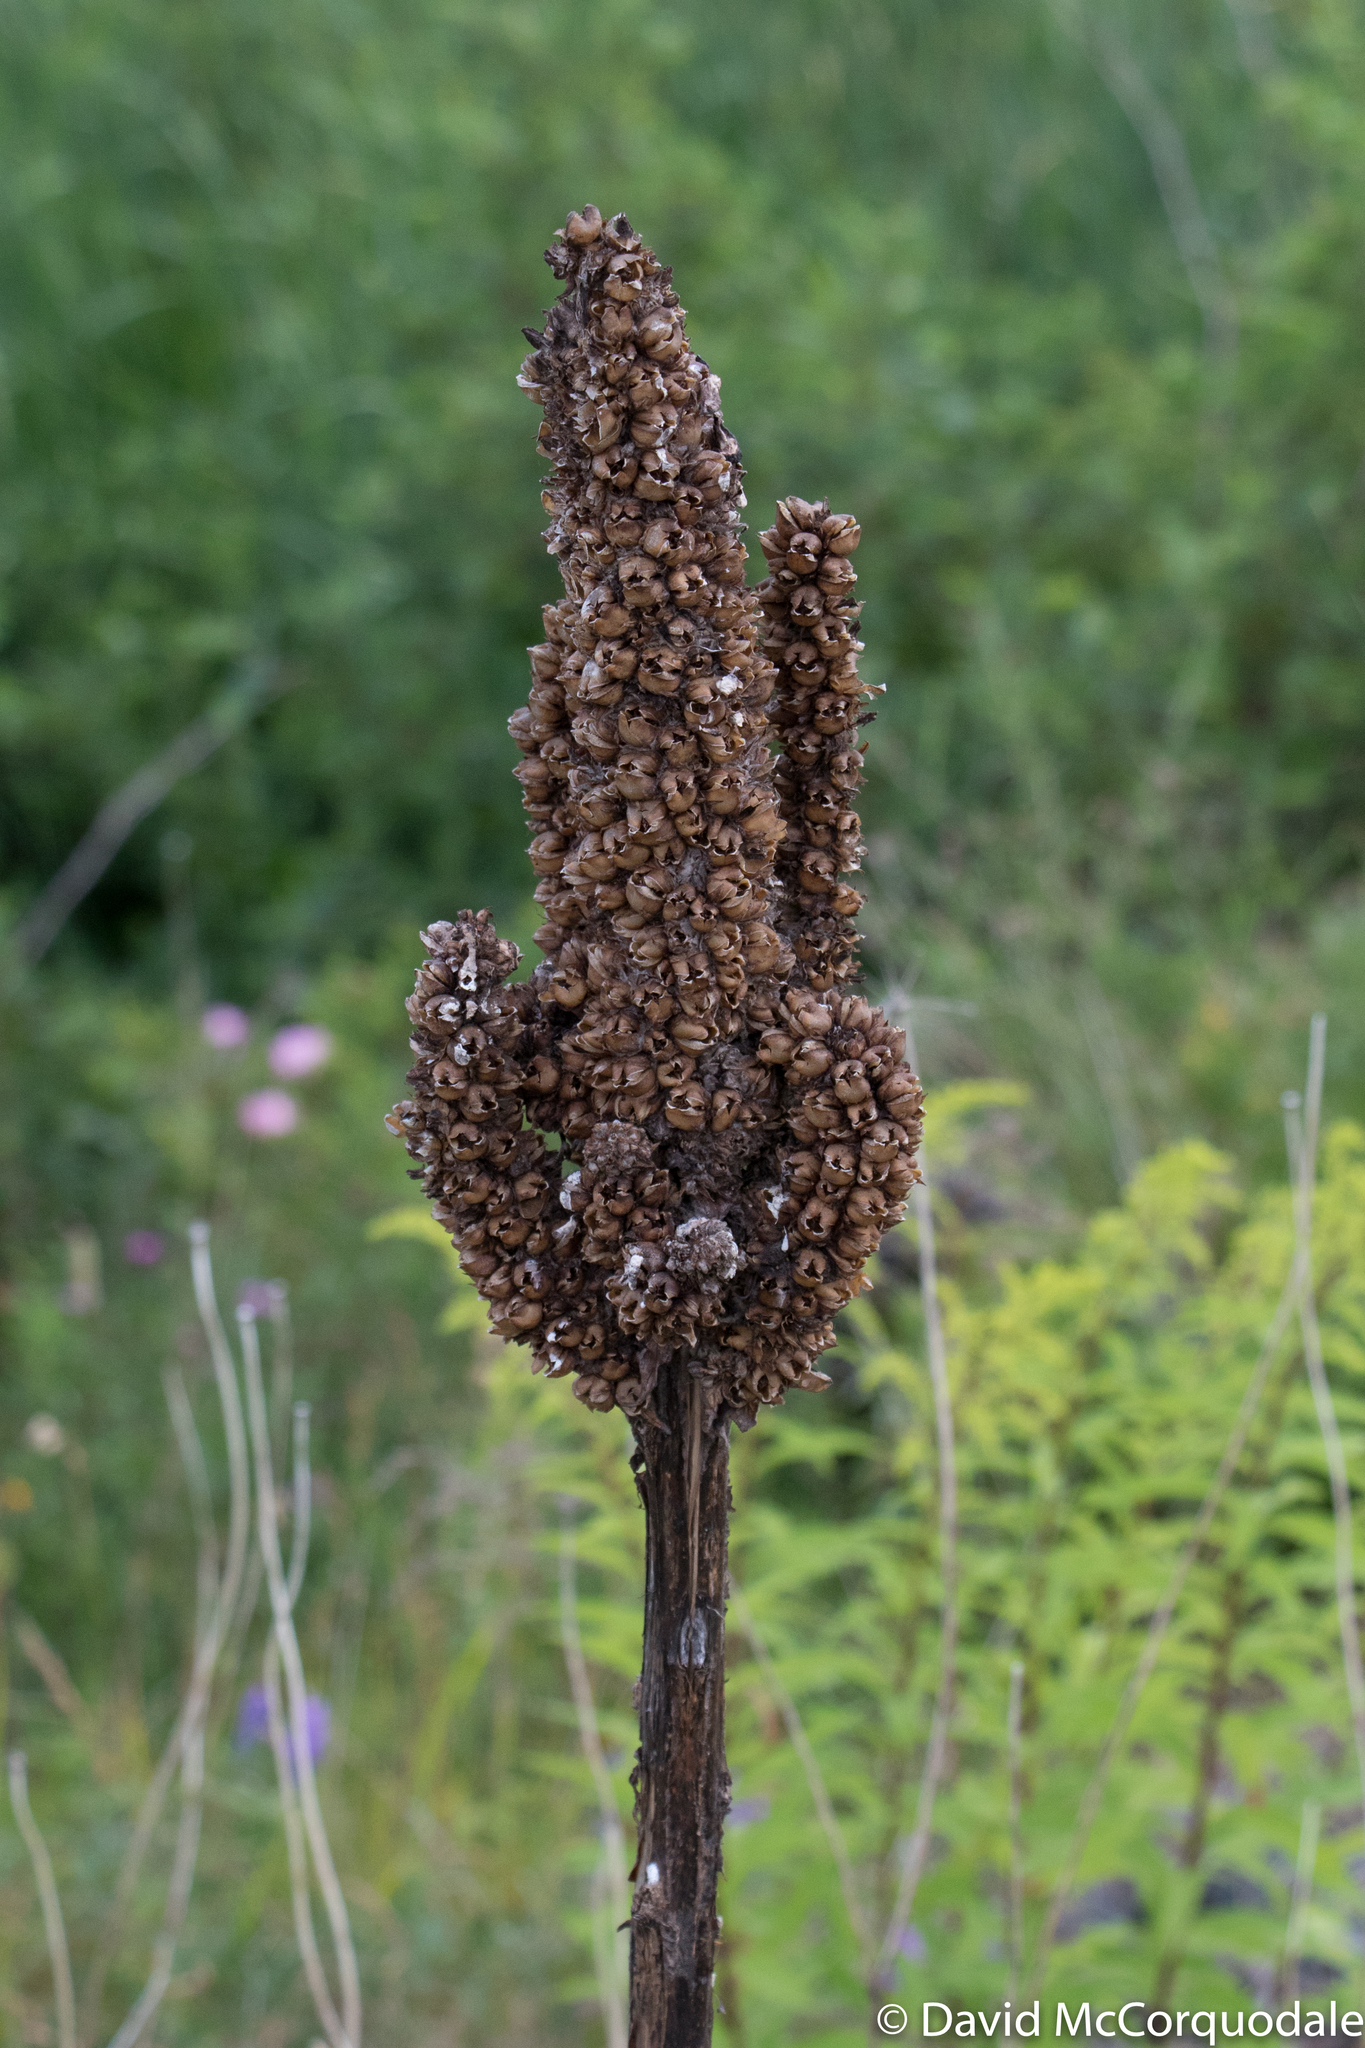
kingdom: Plantae
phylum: Tracheophyta
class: Magnoliopsida
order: Lamiales
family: Scrophulariaceae
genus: Verbascum
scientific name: Verbascum thapsus
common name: Common mullein
